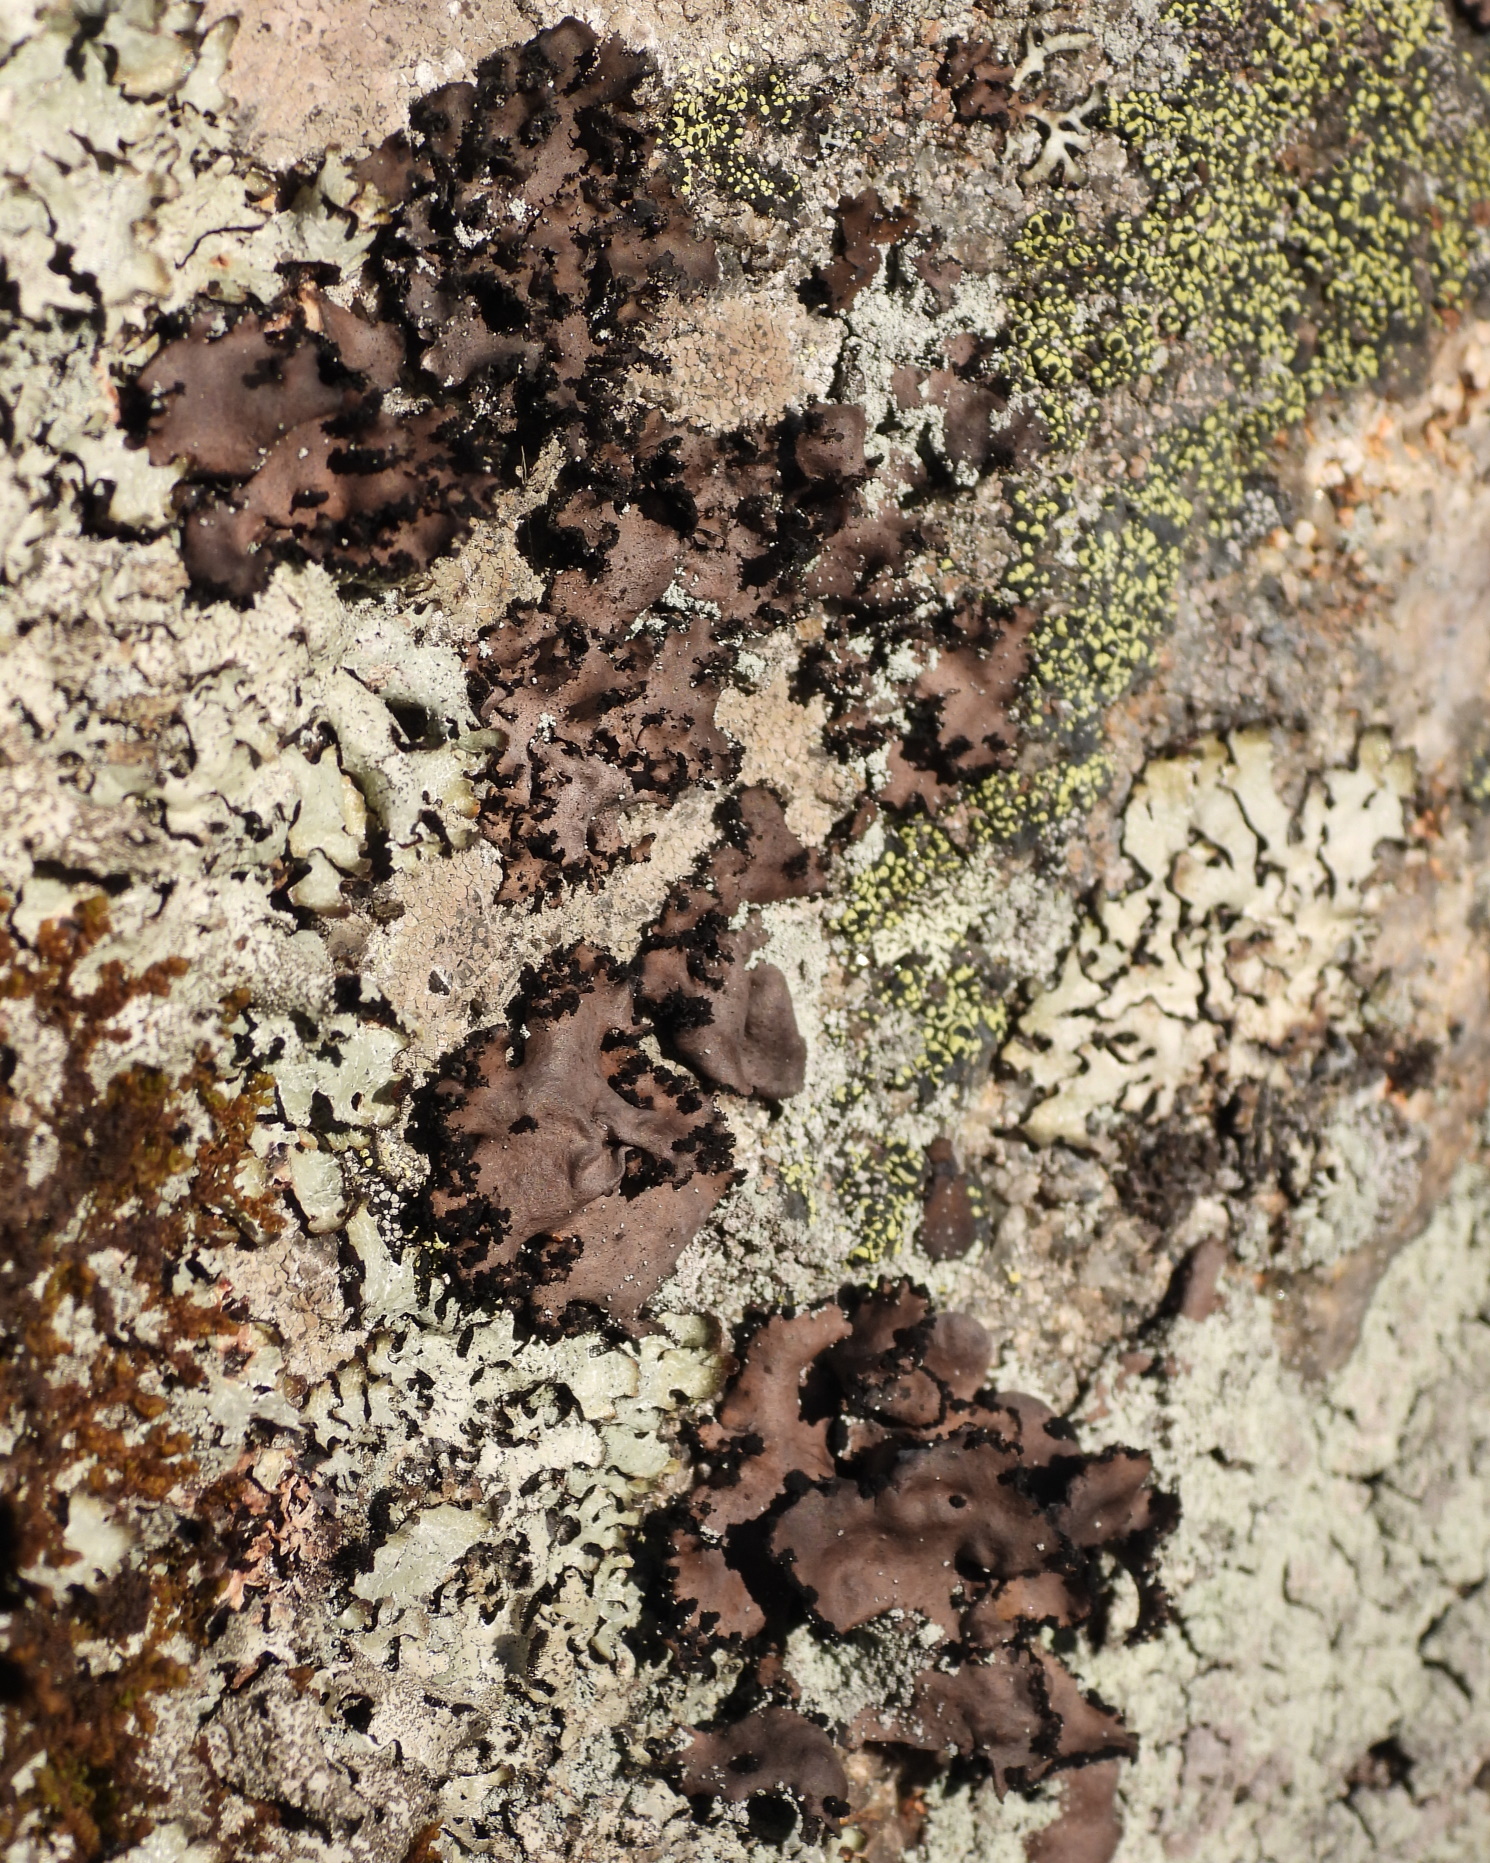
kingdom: Fungi
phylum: Ascomycota
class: Lecanoromycetes
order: Umbilicariales
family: Umbilicariaceae
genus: Umbilicaria
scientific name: Umbilicaria polyrrhiza
